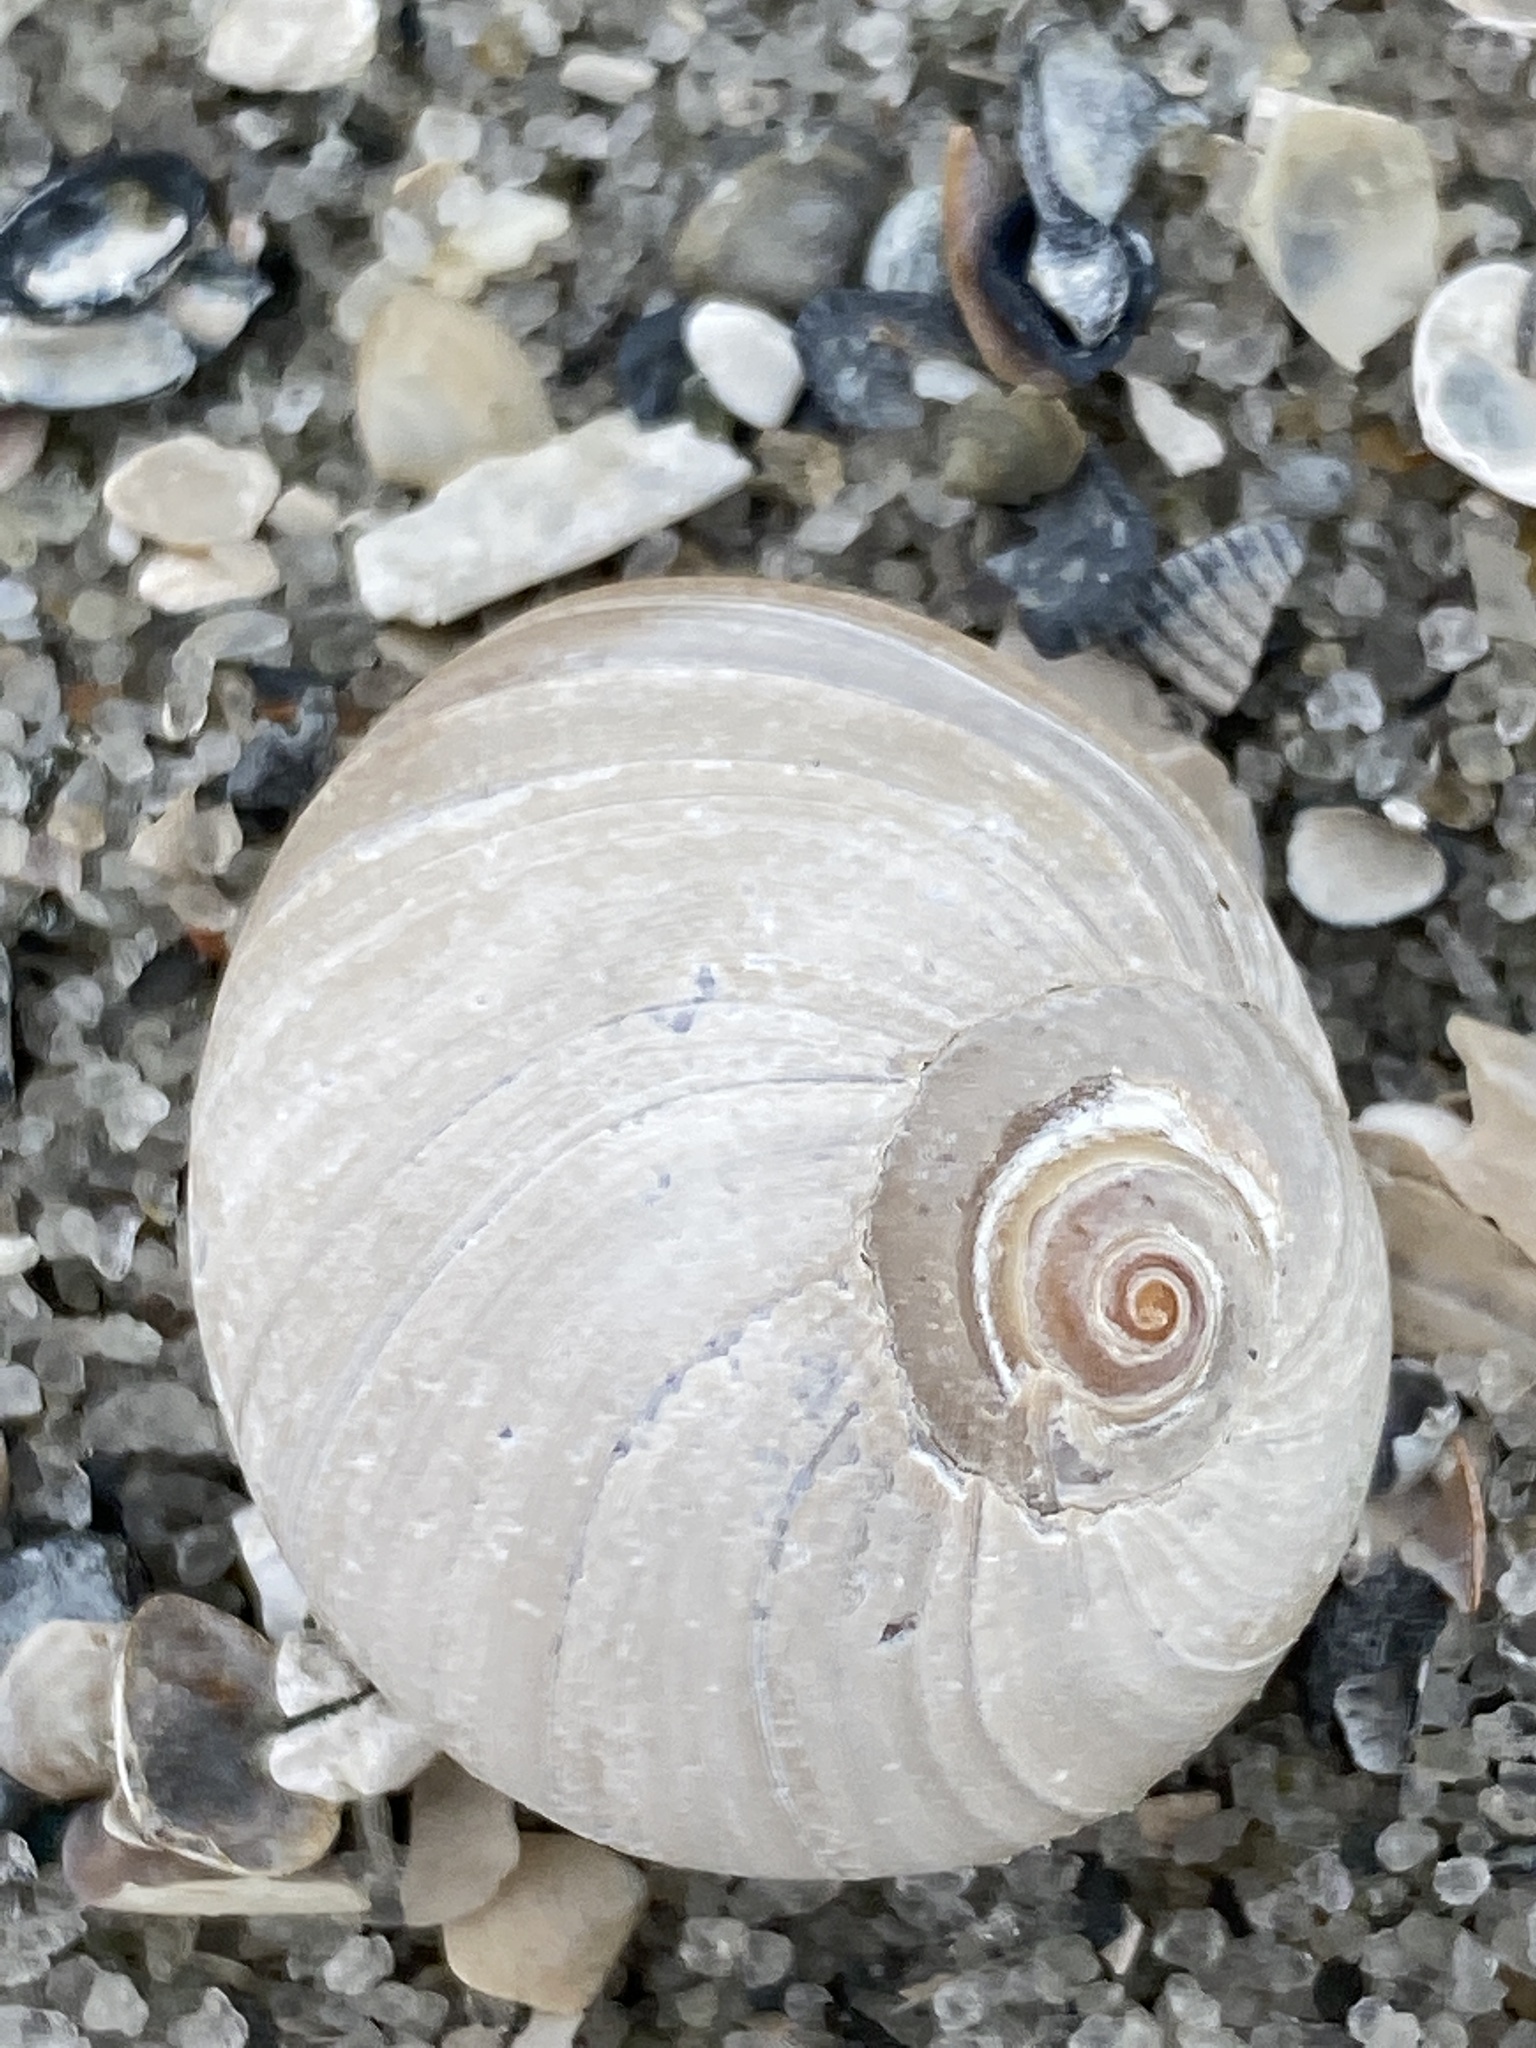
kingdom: Animalia
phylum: Mollusca
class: Gastropoda
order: Littorinimorpha
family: Naticidae
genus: Neverita
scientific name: Neverita duplicata
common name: Lobed moonsnail
